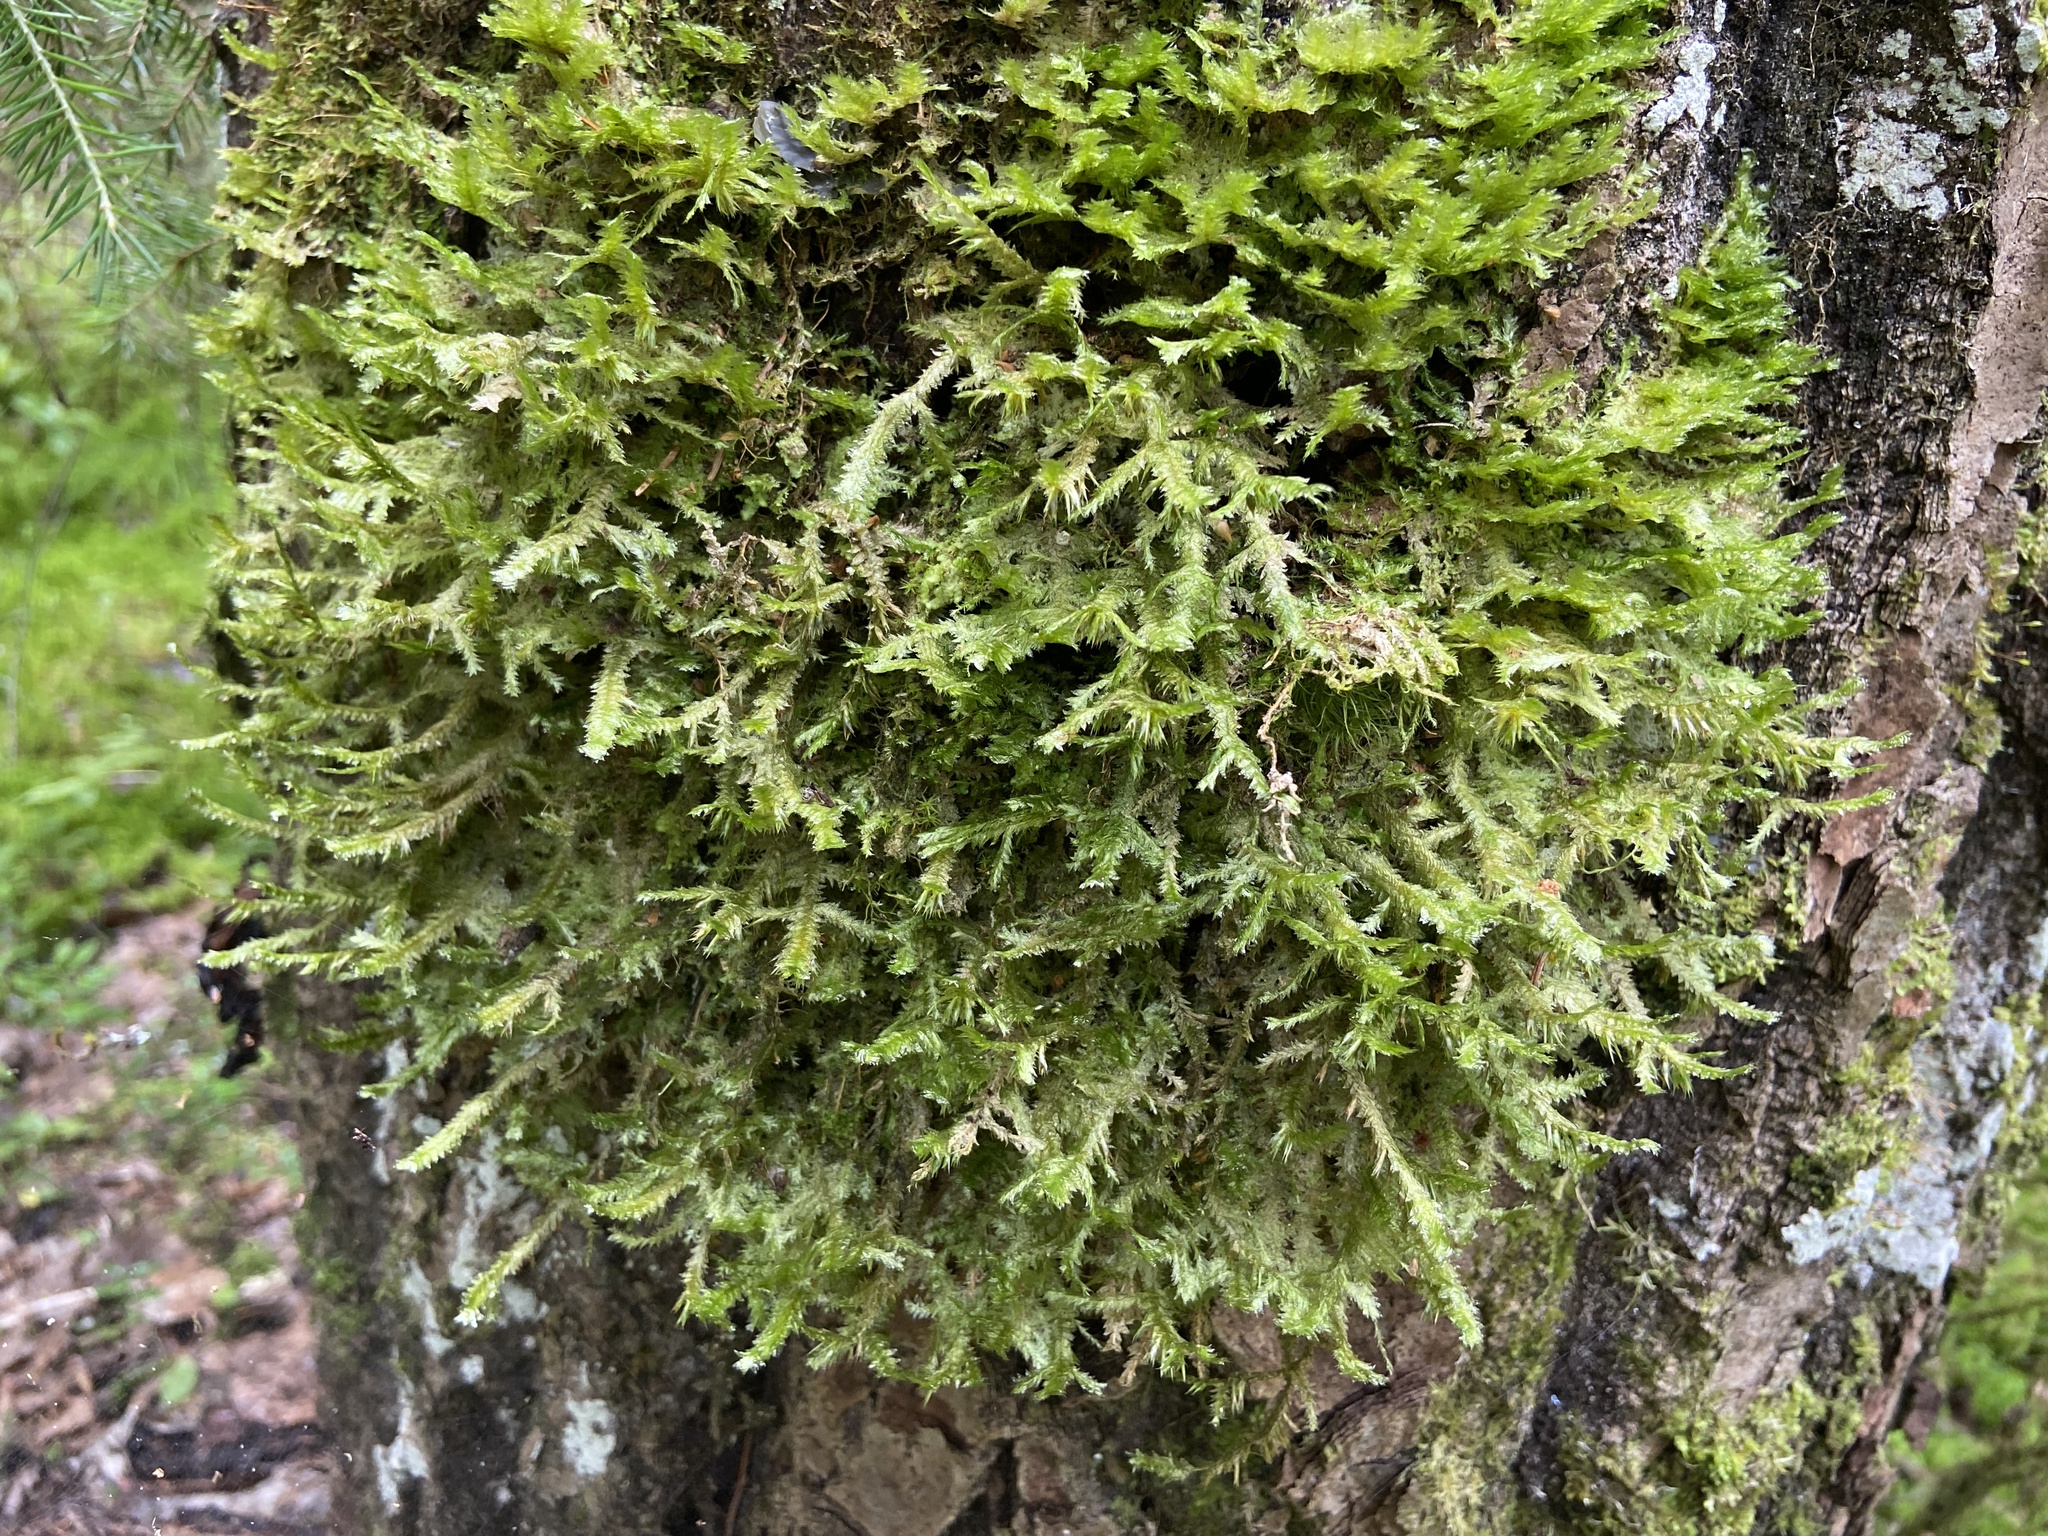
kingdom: Plantae
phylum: Bryophyta
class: Bryopsida
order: Hypnales
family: Neckeraceae
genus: Neckera
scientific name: Neckera pennata
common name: Feathery neckera
